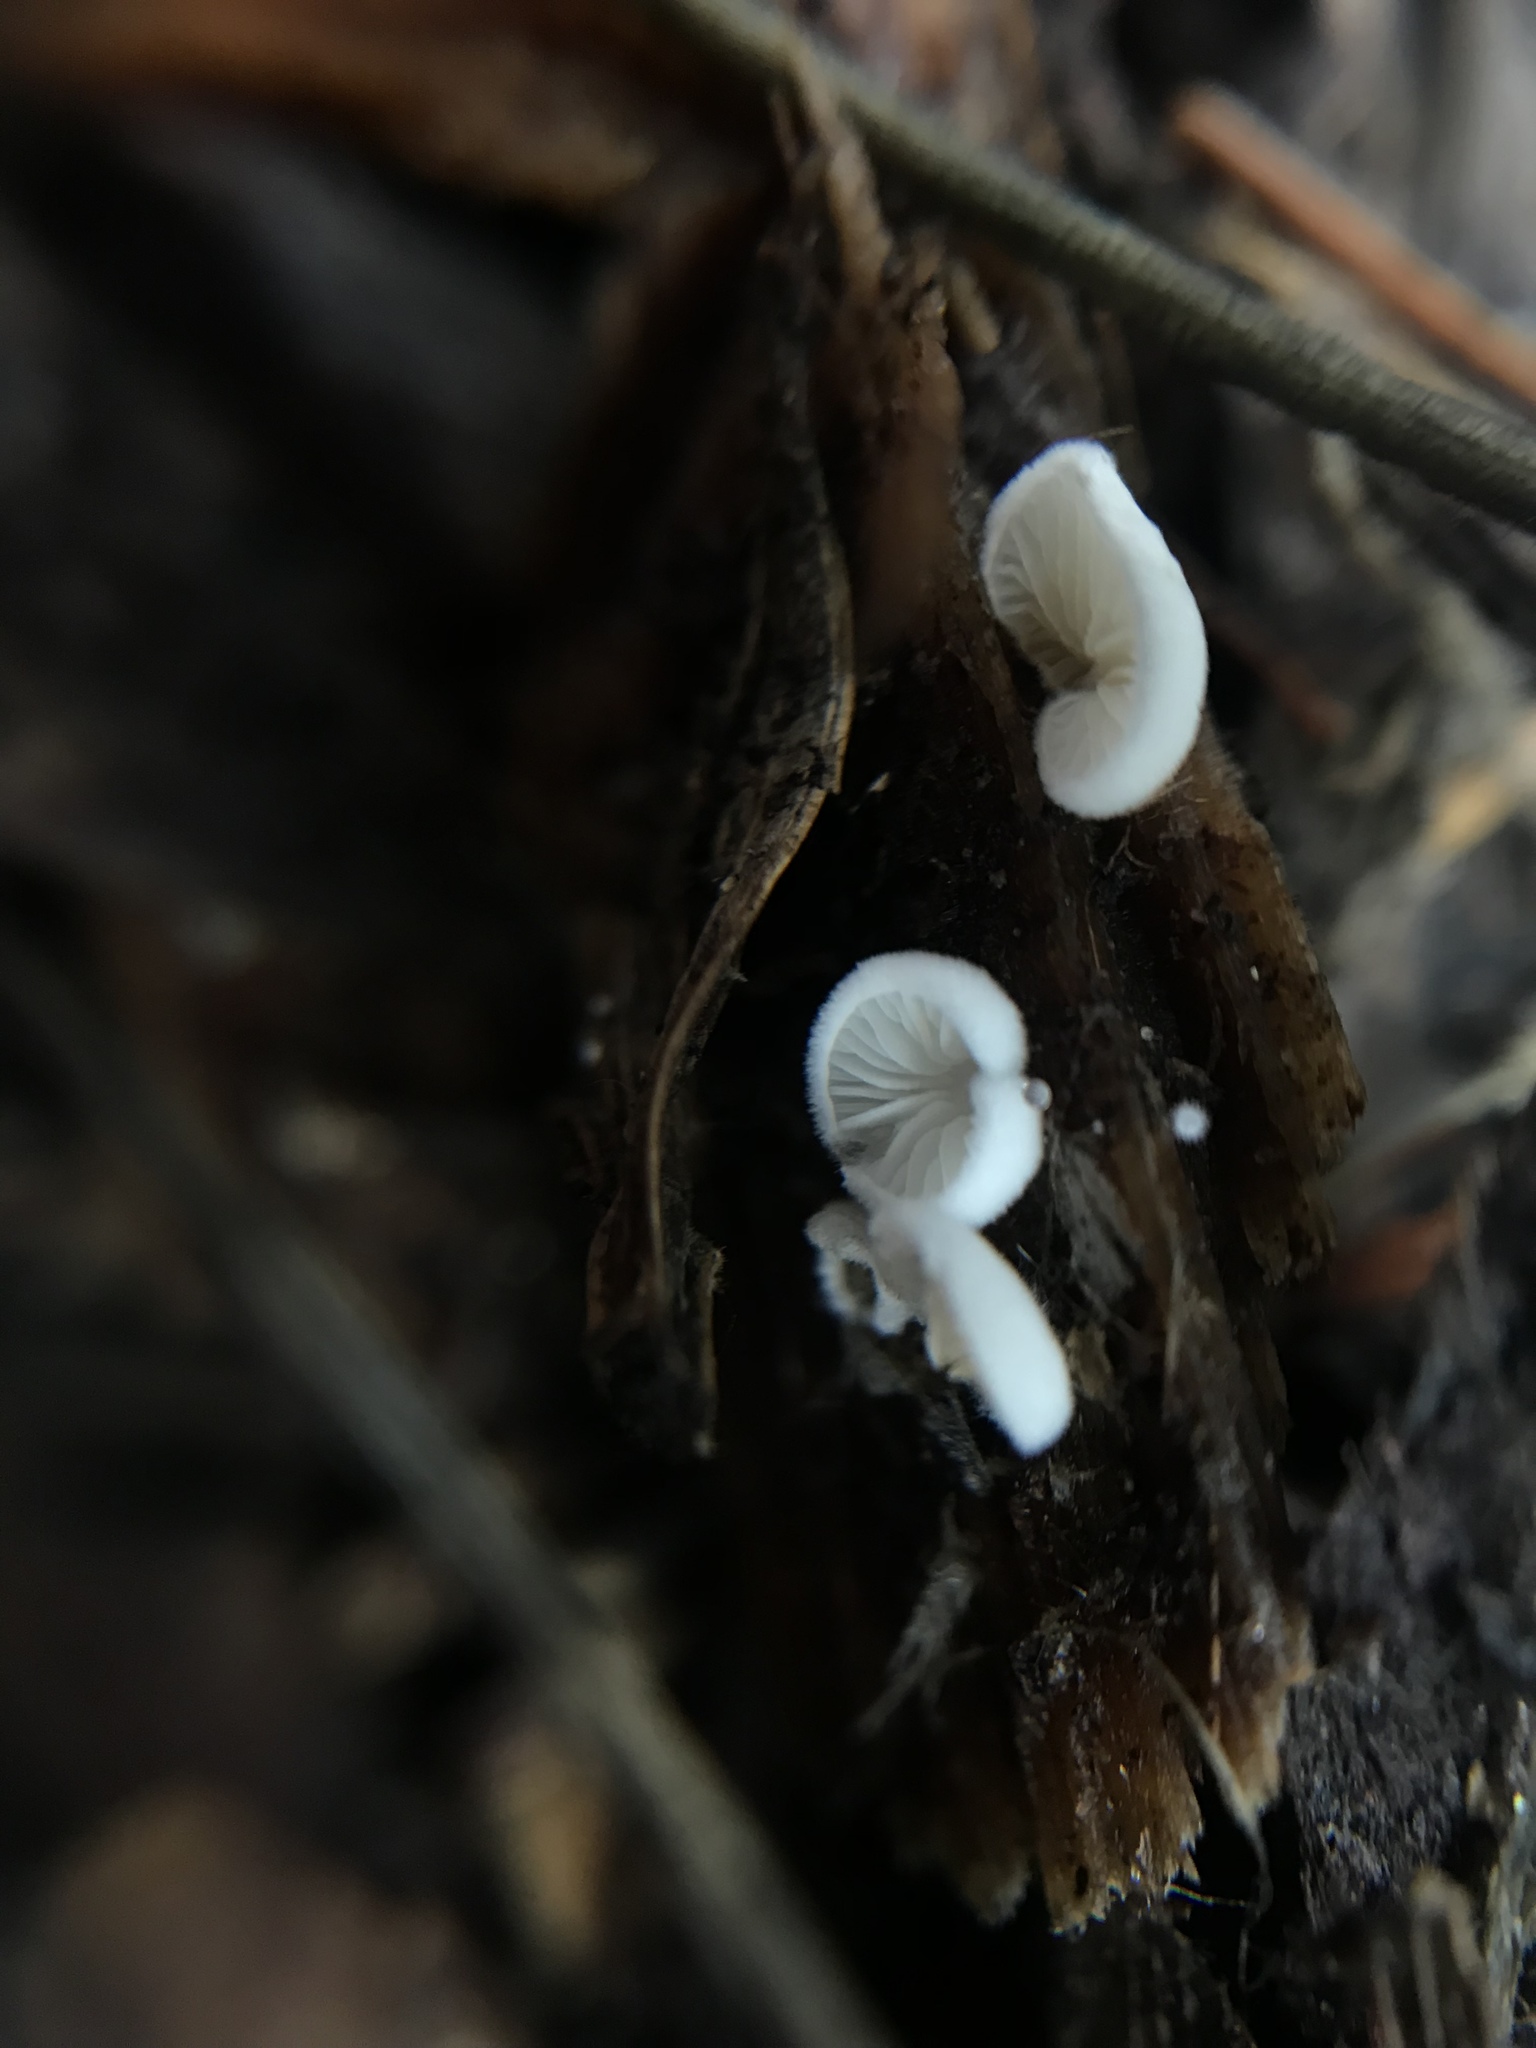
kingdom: Fungi
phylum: Basidiomycota
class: Agaricomycetes
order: Agaricales
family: Crepidotaceae
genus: Crepidotus
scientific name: Crepidotus epibryus
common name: Grass oysterling
